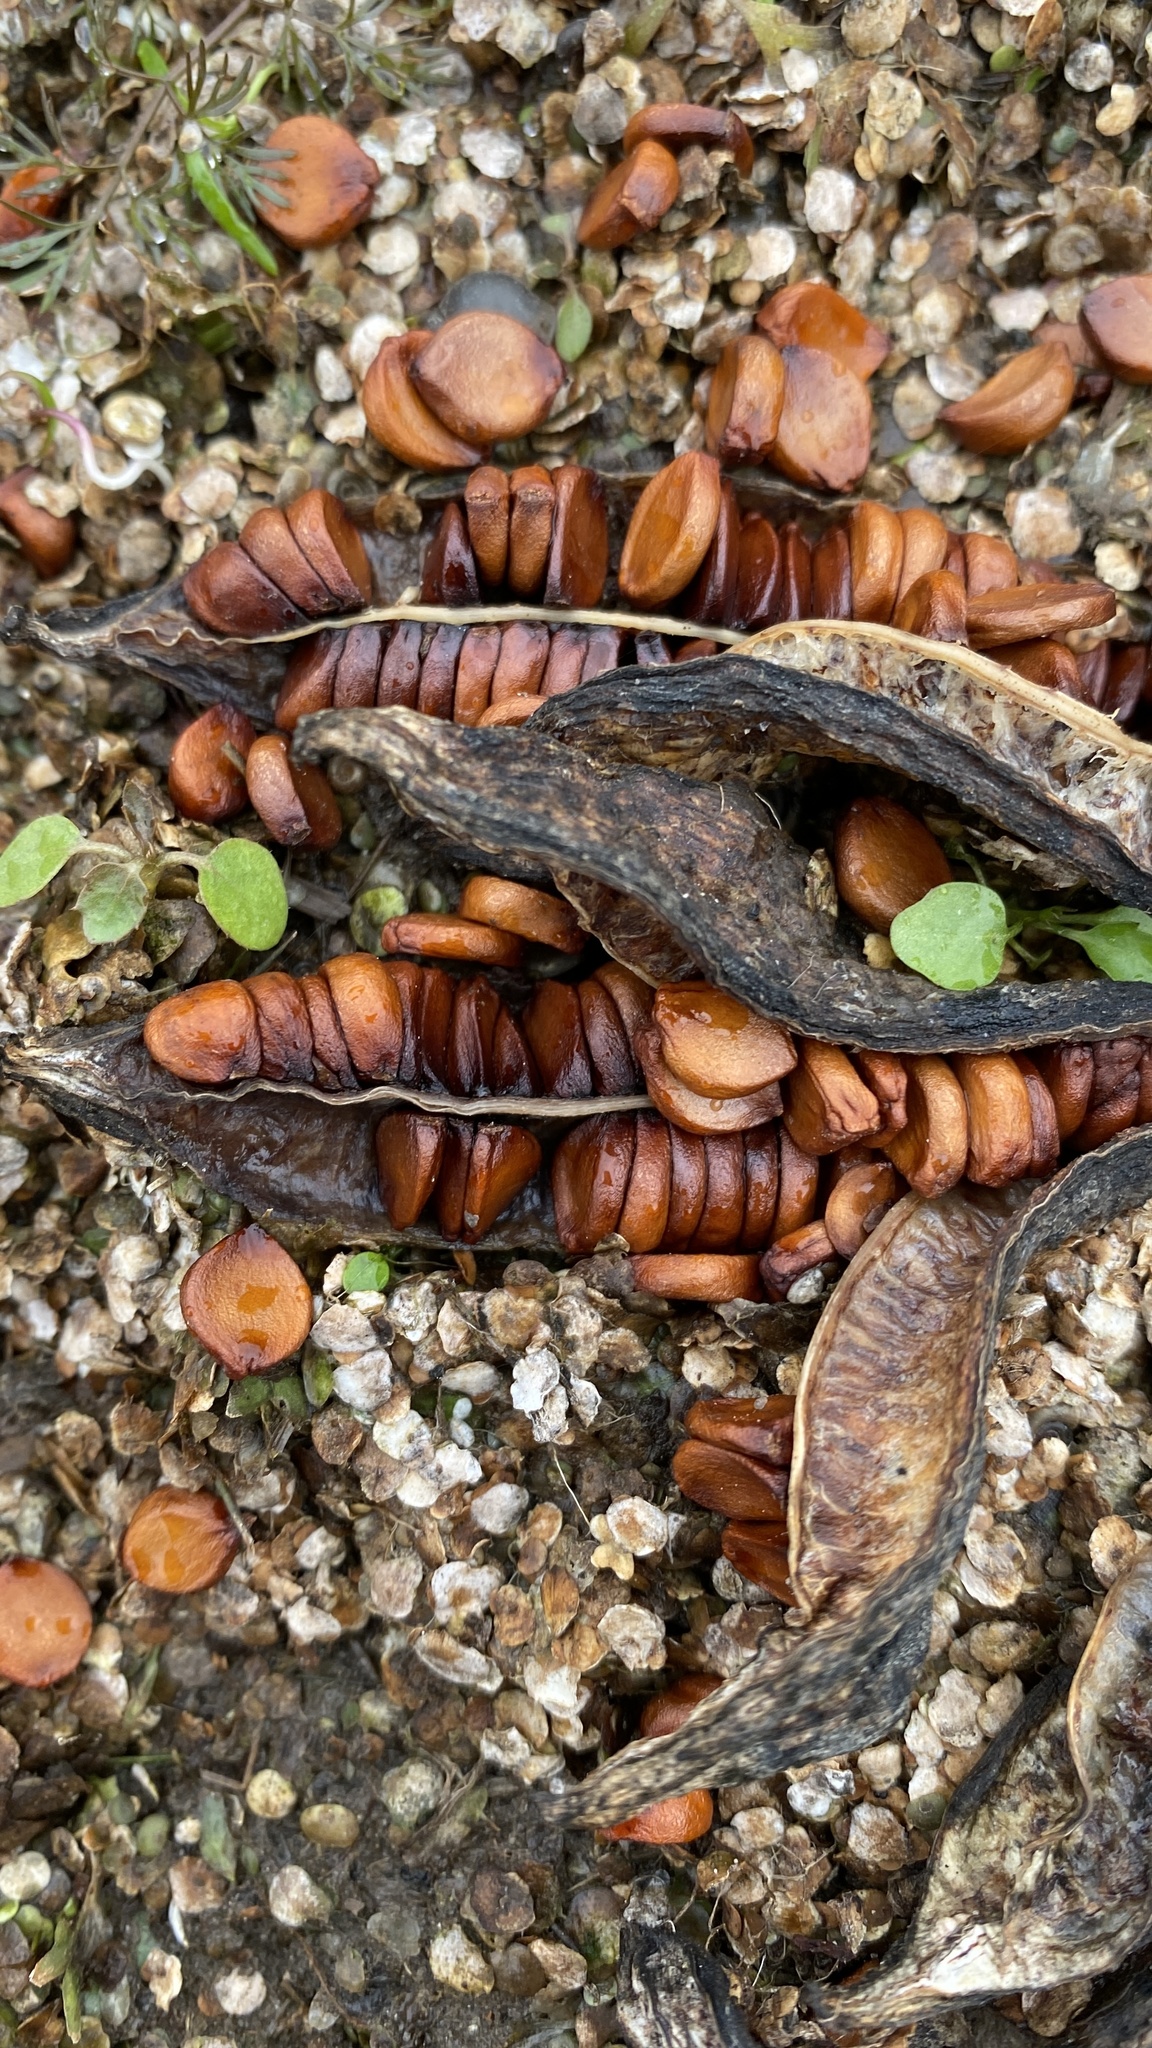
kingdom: Plantae
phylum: Tracheophyta
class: Liliopsida
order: Asparagales
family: Iridaceae
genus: Iris
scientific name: Iris pseudacorus
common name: Yellow flag
